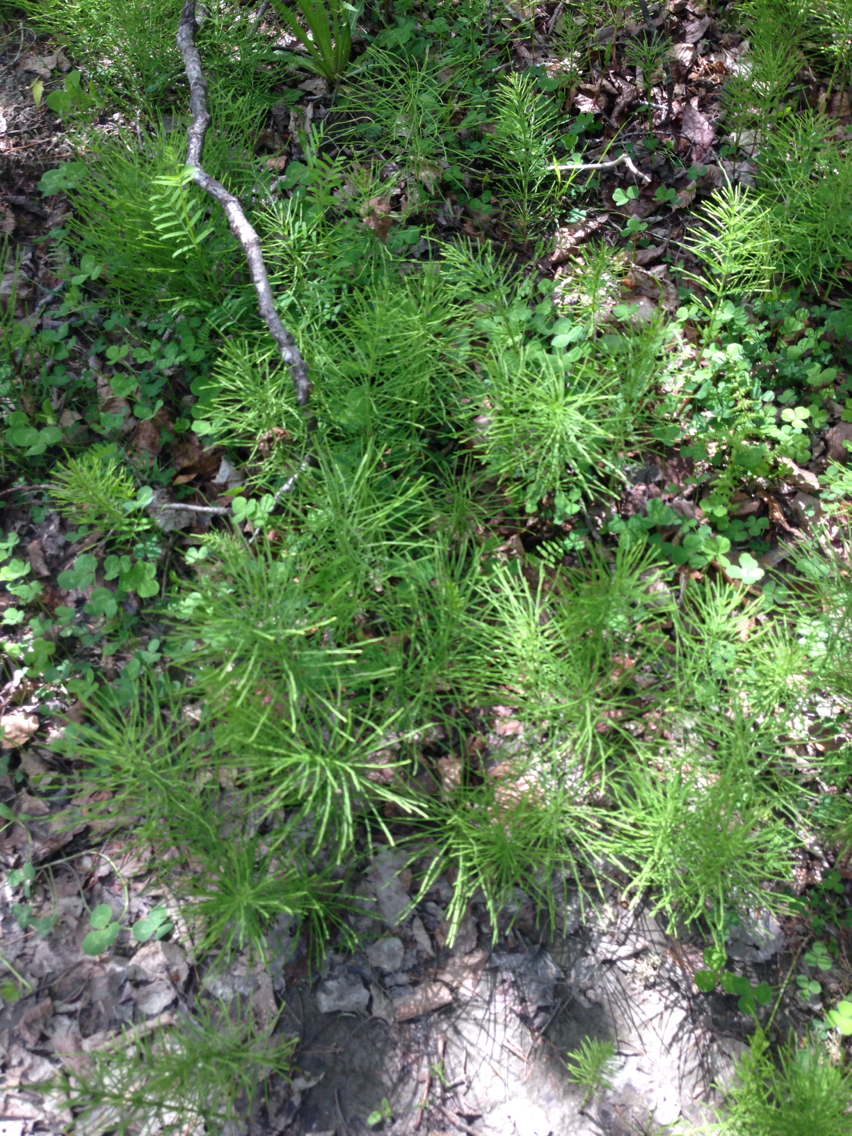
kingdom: Plantae
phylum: Tracheophyta
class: Polypodiopsida
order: Equisetales
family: Equisetaceae
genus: Equisetum
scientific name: Equisetum arvense
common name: Field horsetail
